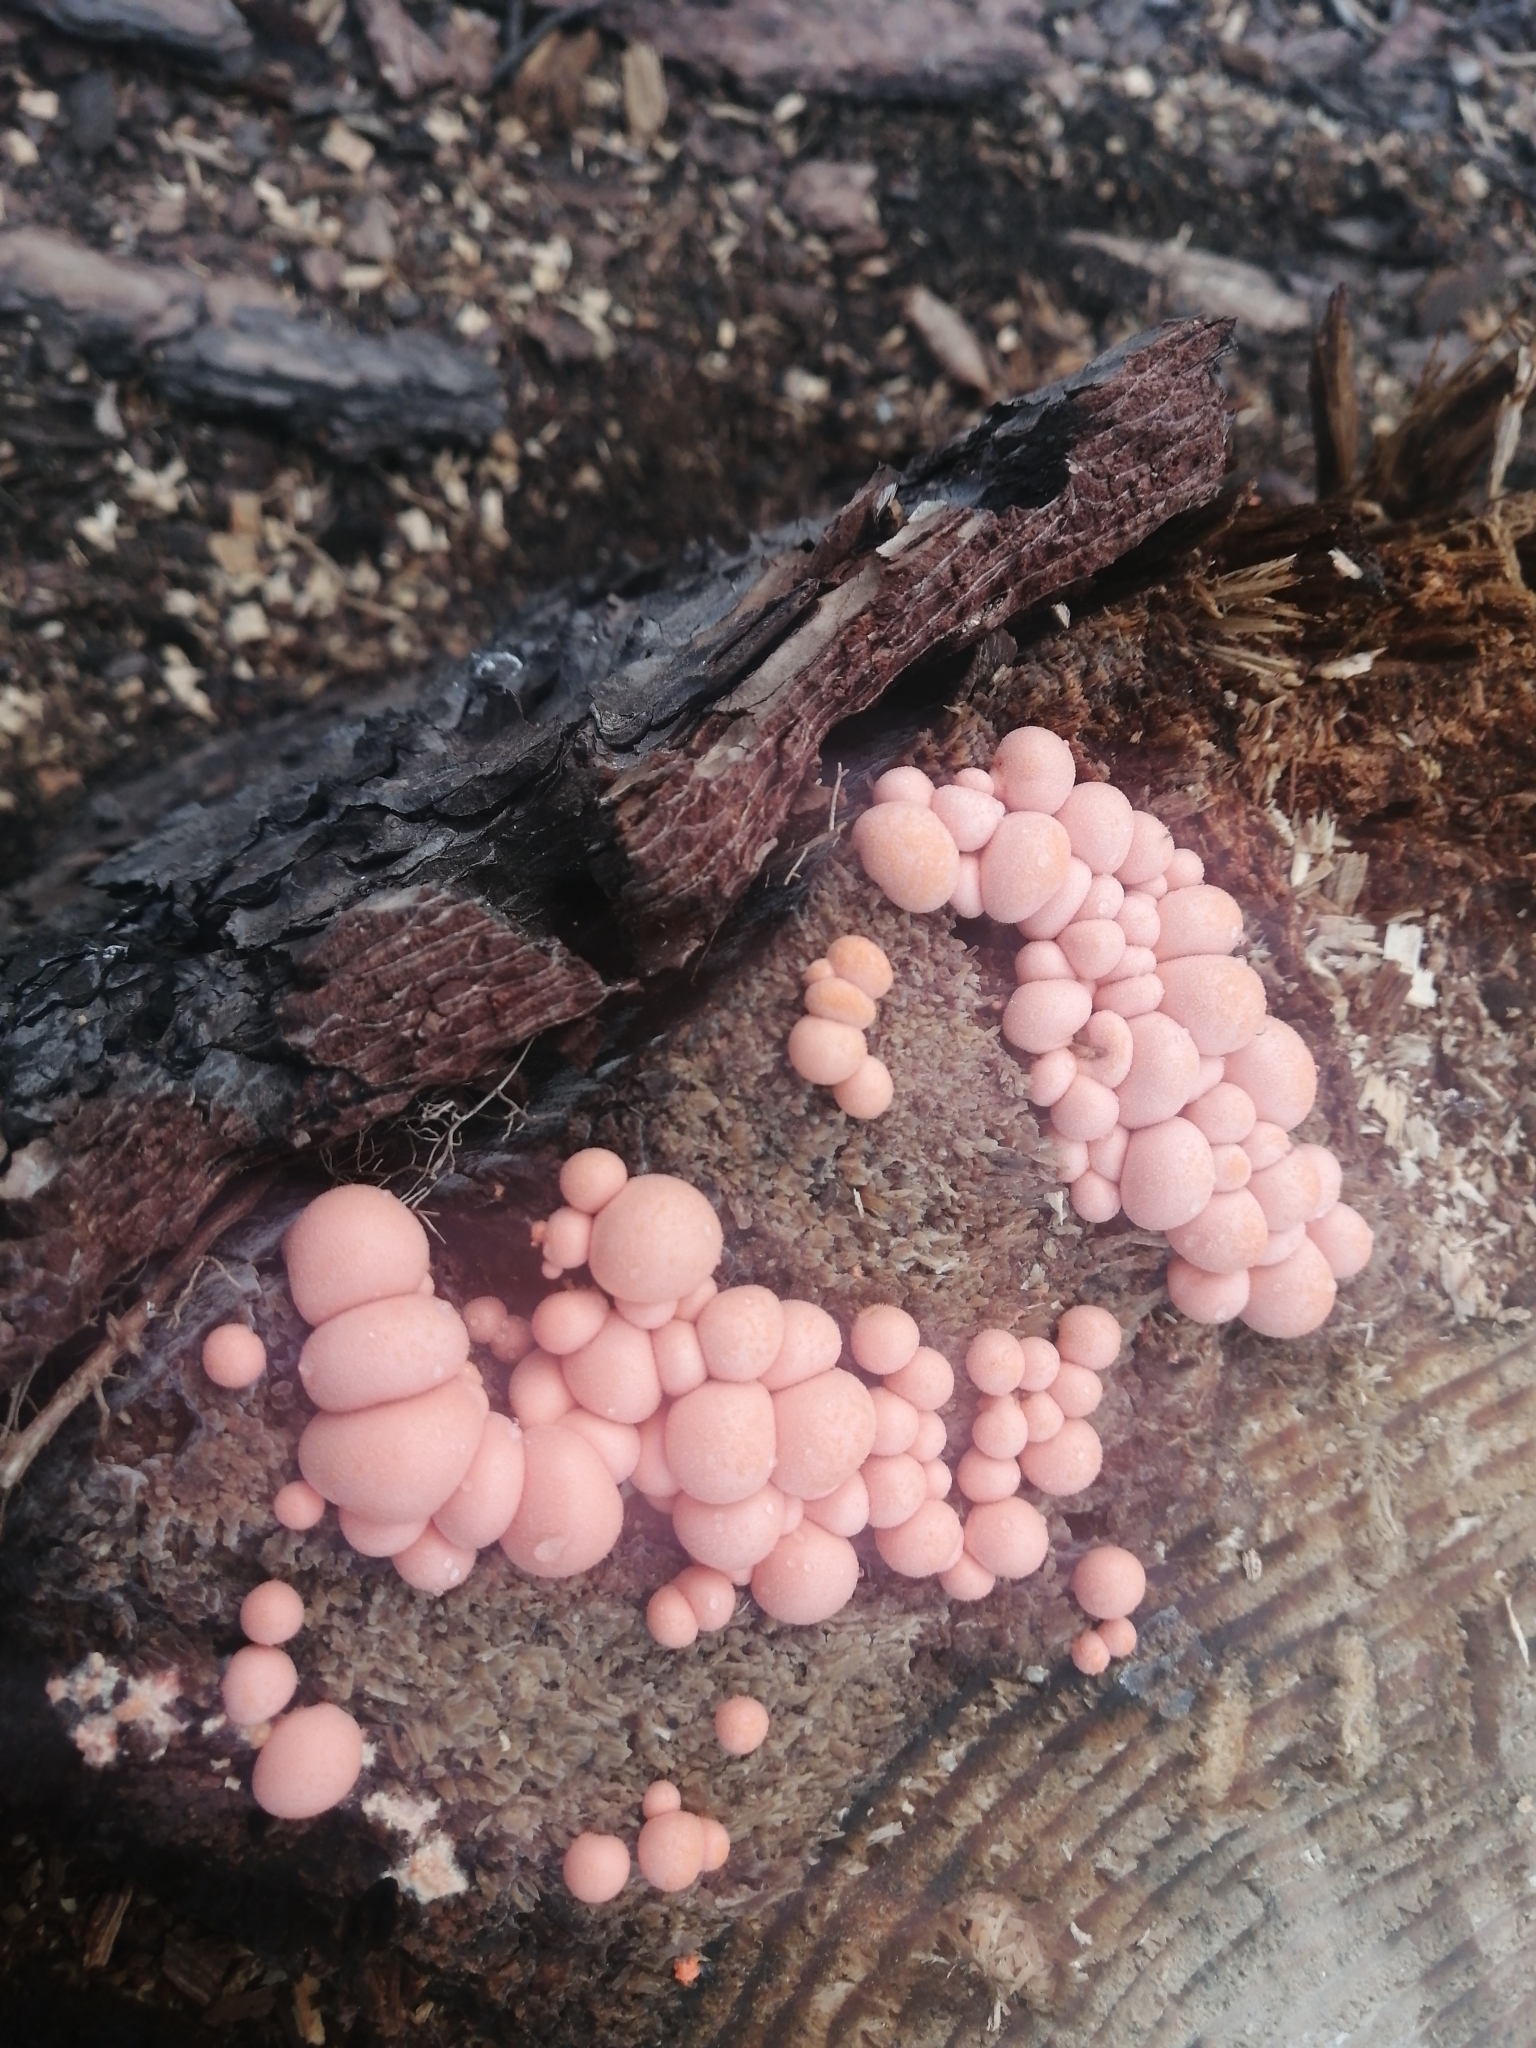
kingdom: Protozoa
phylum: Mycetozoa
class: Myxomycetes
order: Cribrariales
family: Tubiferaceae
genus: Lycogala
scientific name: Lycogala epidendrum
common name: Wolf's milk
